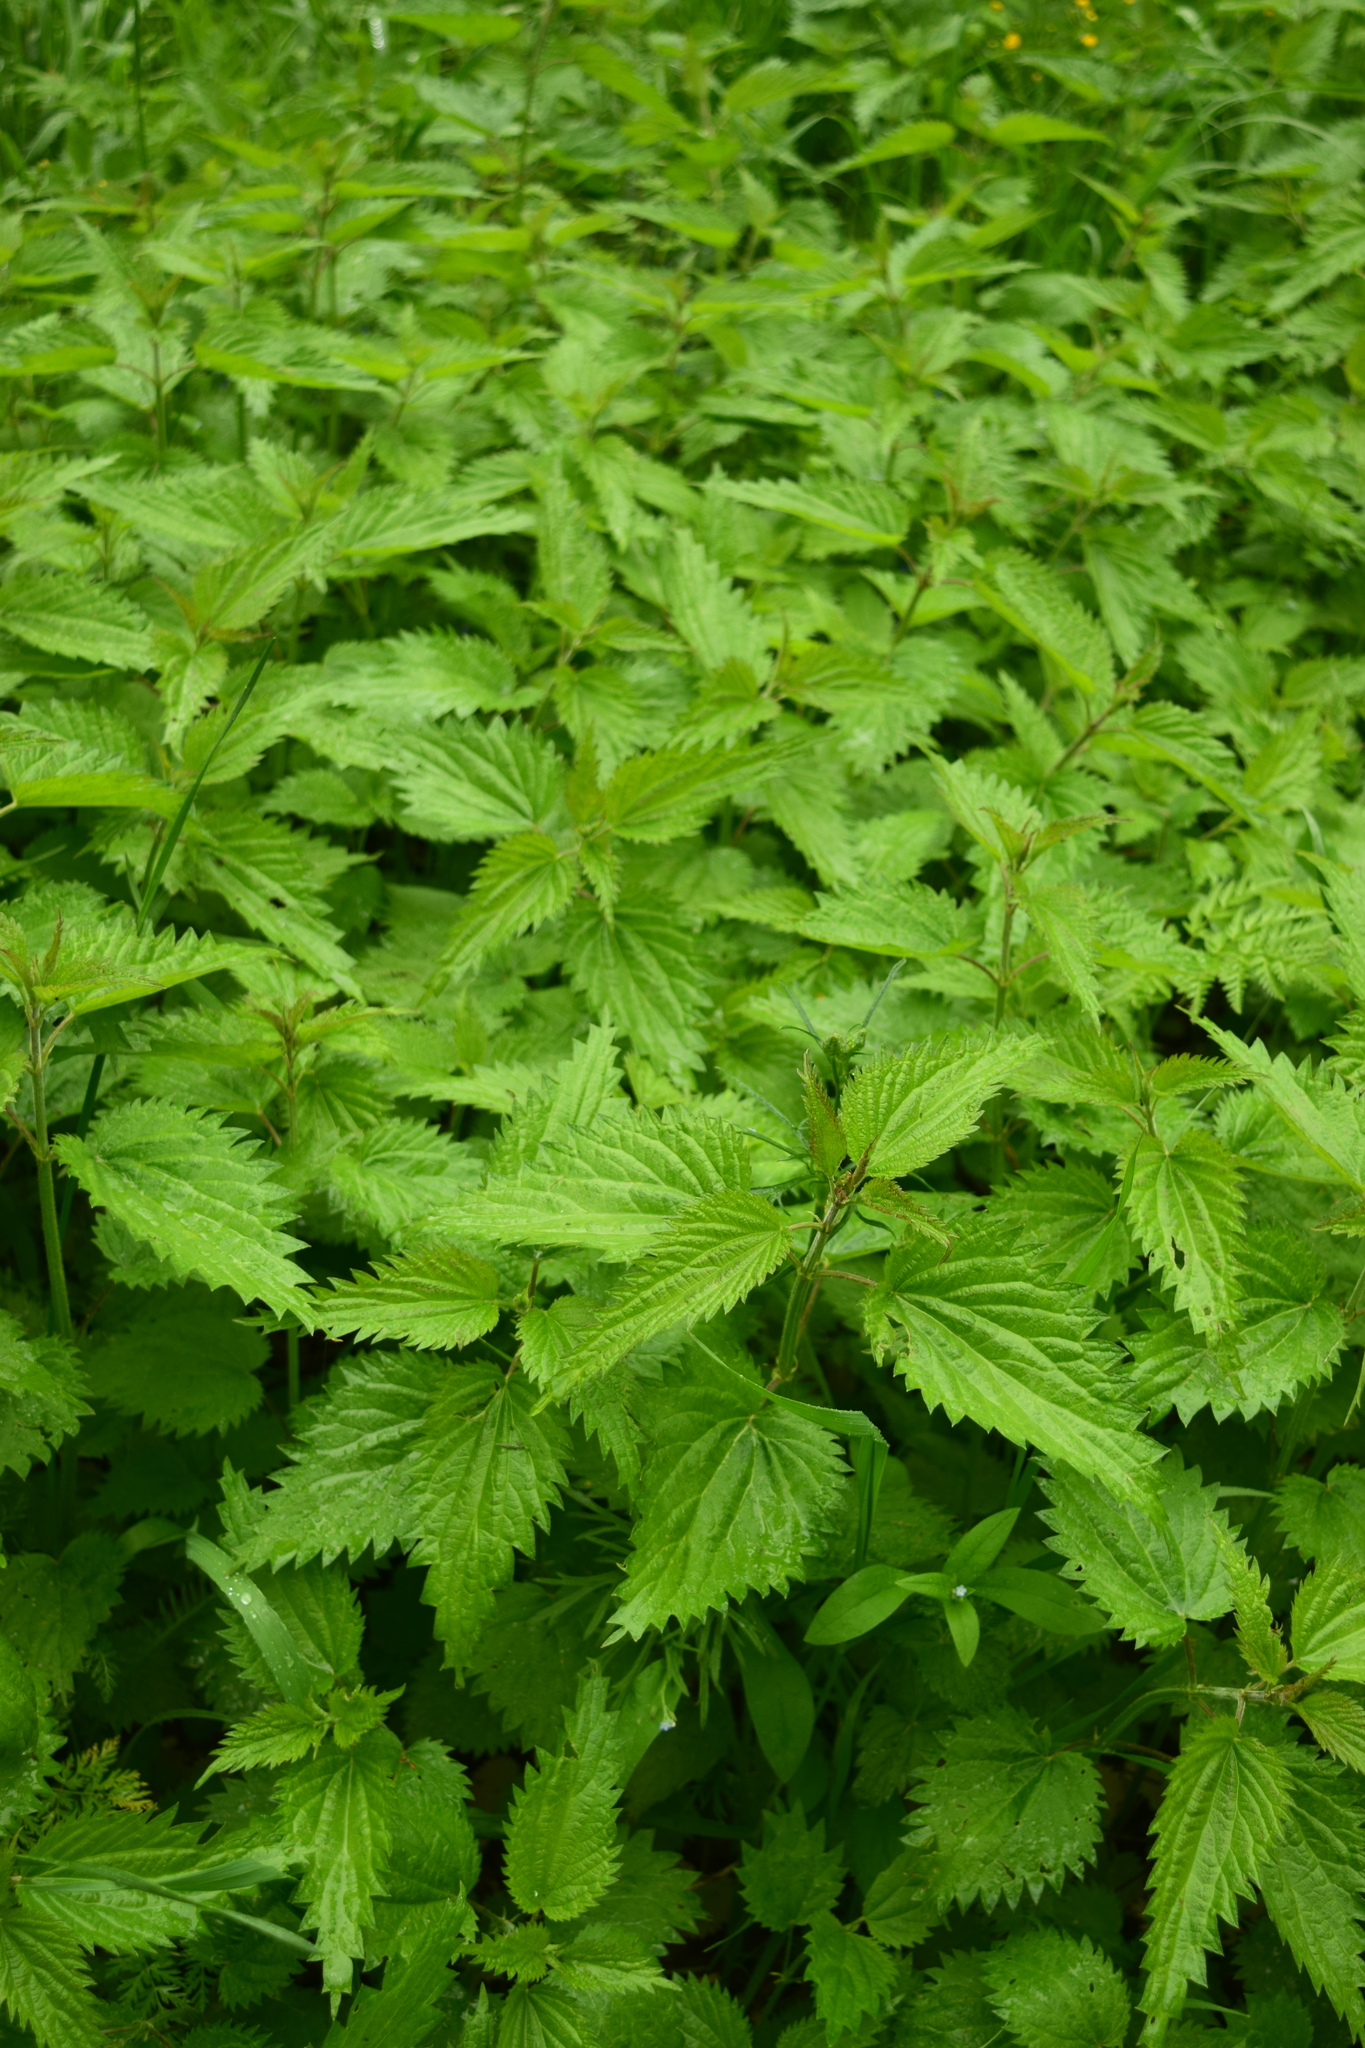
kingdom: Plantae
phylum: Tracheophyta
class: Magnoliopsida
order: Rosales
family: Urticaceae
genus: Urtica
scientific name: Urtica dioica
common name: Common nettle
